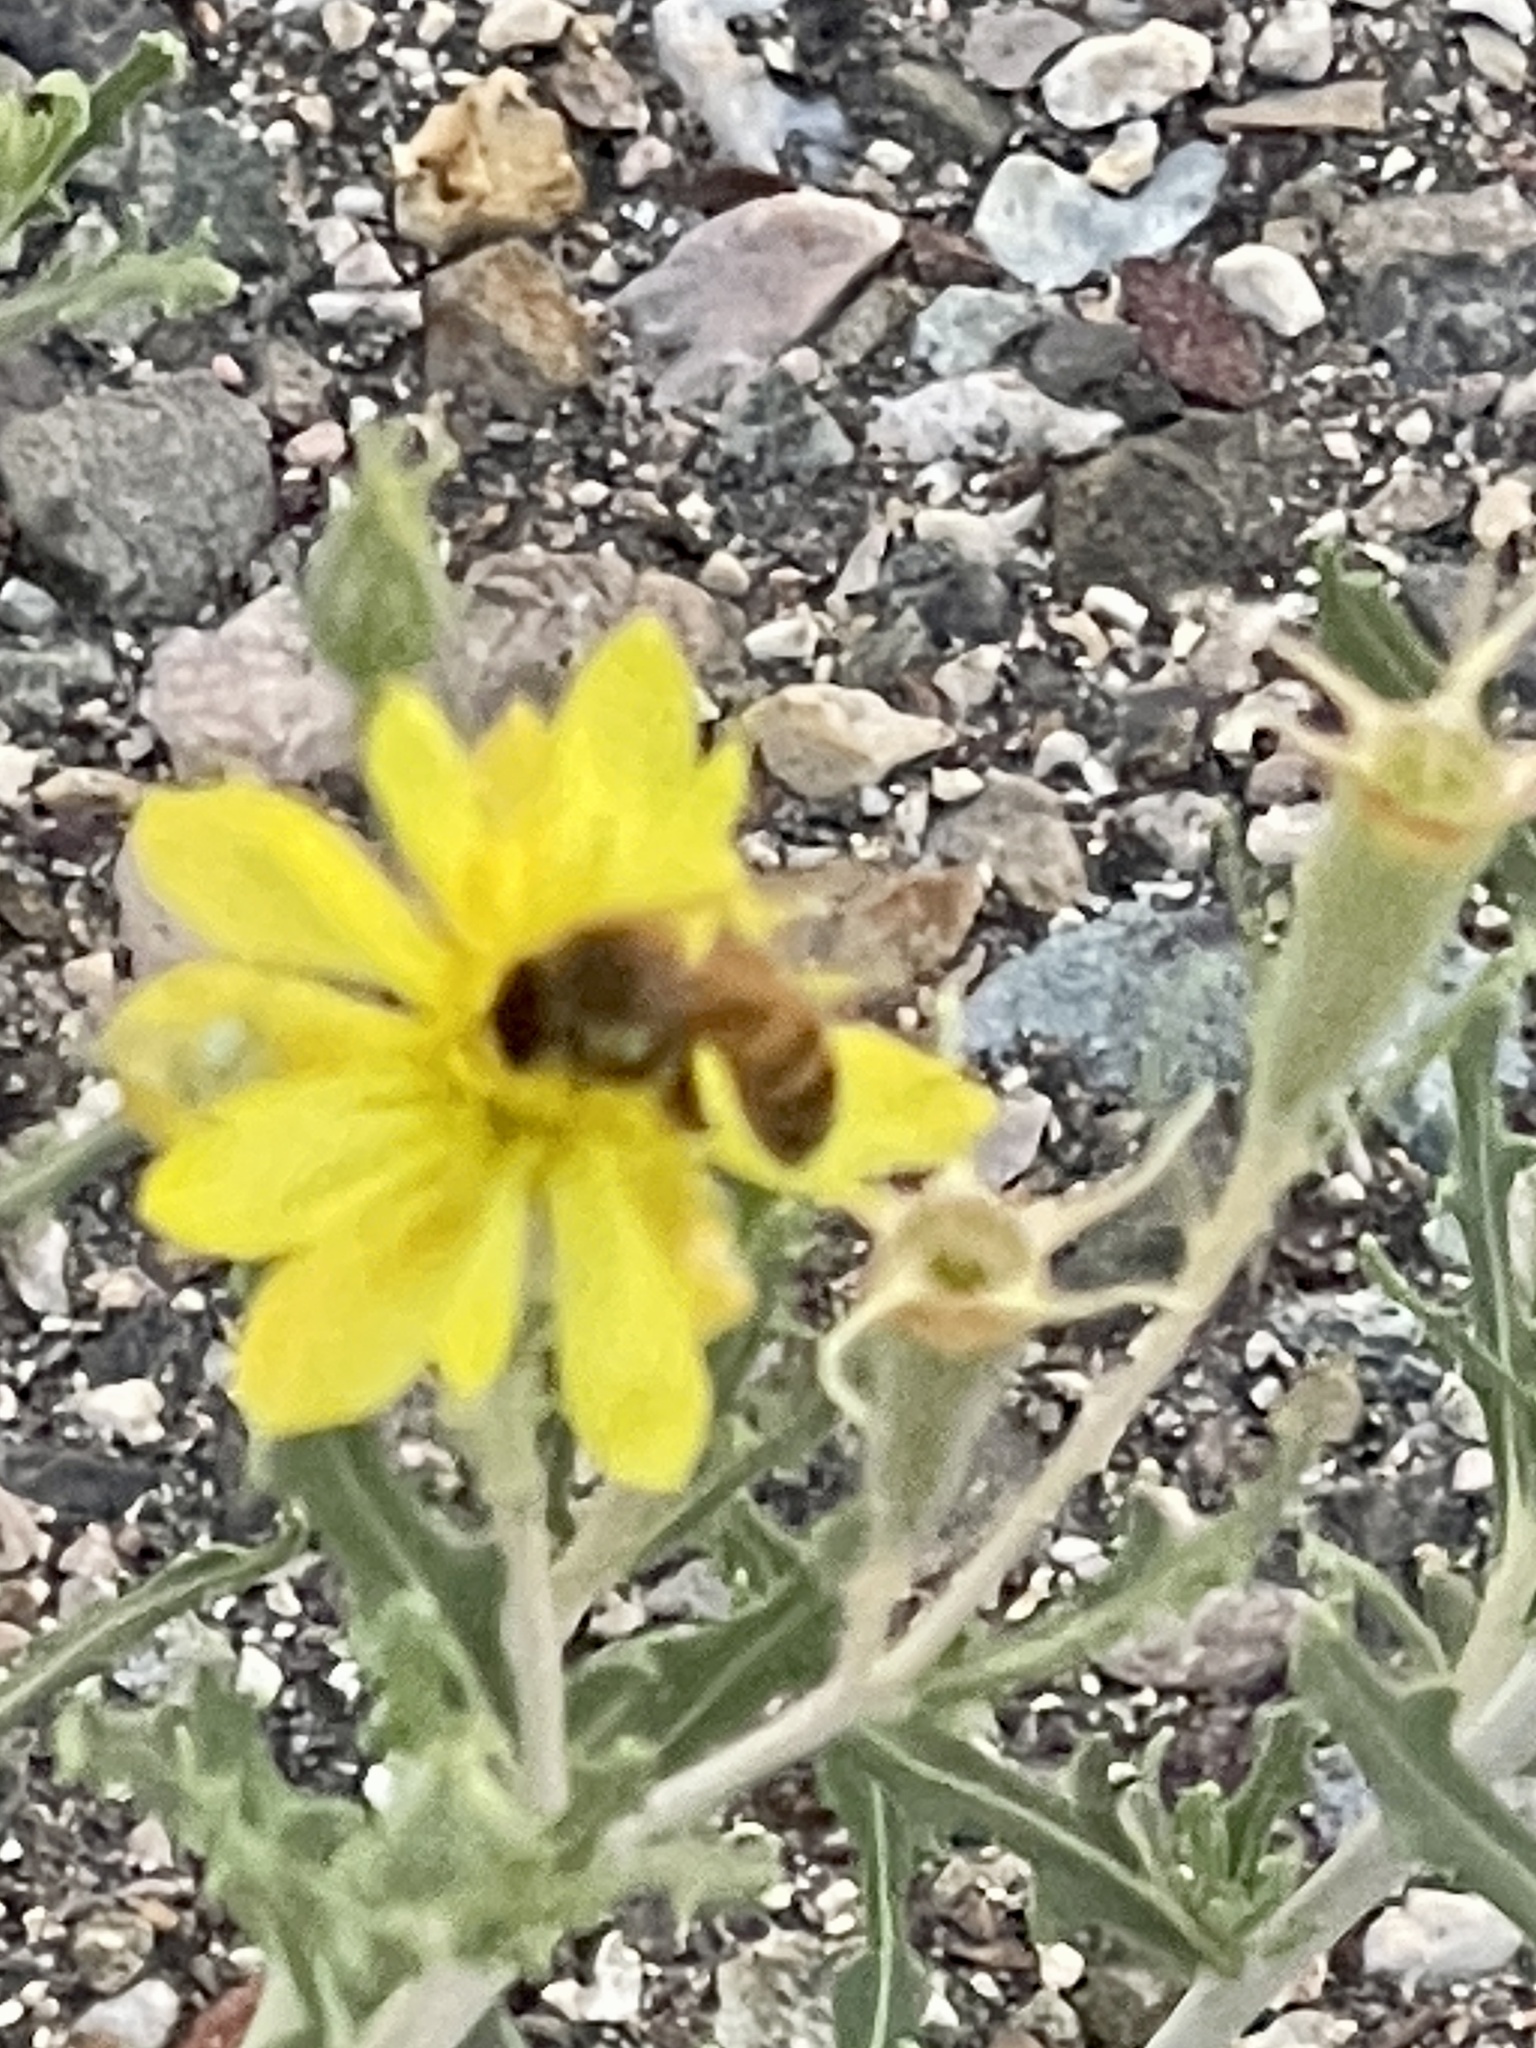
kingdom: Animalia
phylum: Arthropoda
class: Insecta
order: Hymenoptera
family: Apidae
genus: Apis
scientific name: Apis mellifera
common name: Honey bee
